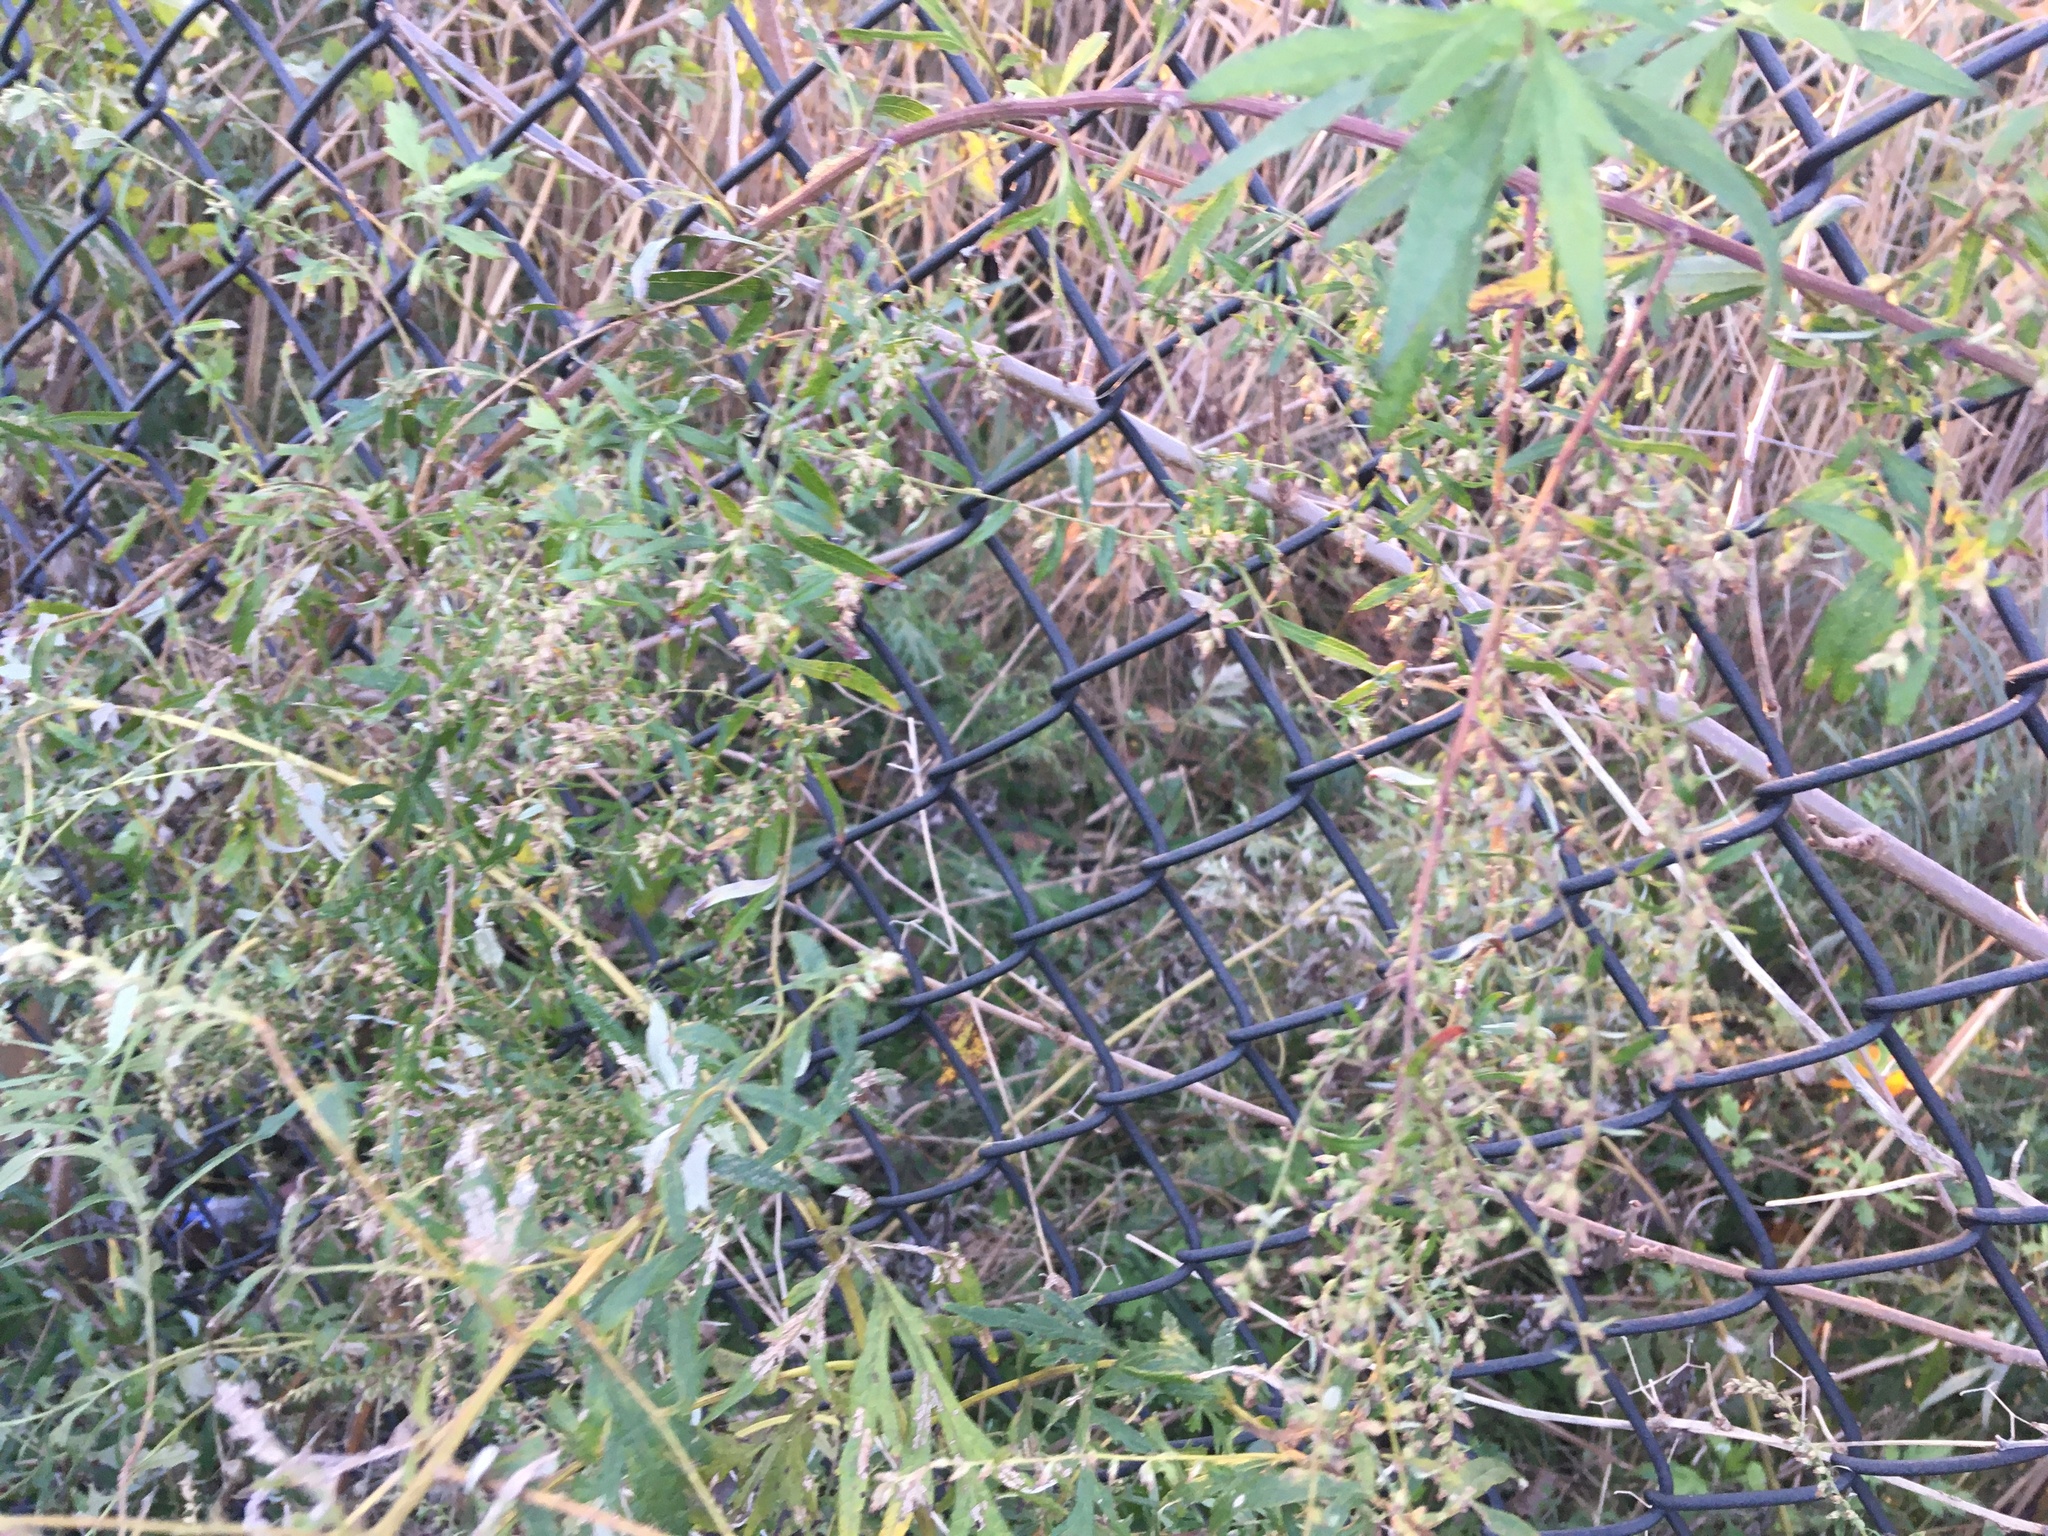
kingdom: Plantae
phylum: Tracheophyta
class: Magnoliopsida
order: Asterales
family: Asteraceae
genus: Artemisia
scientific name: Artemisia vulgaris
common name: Mugwort
